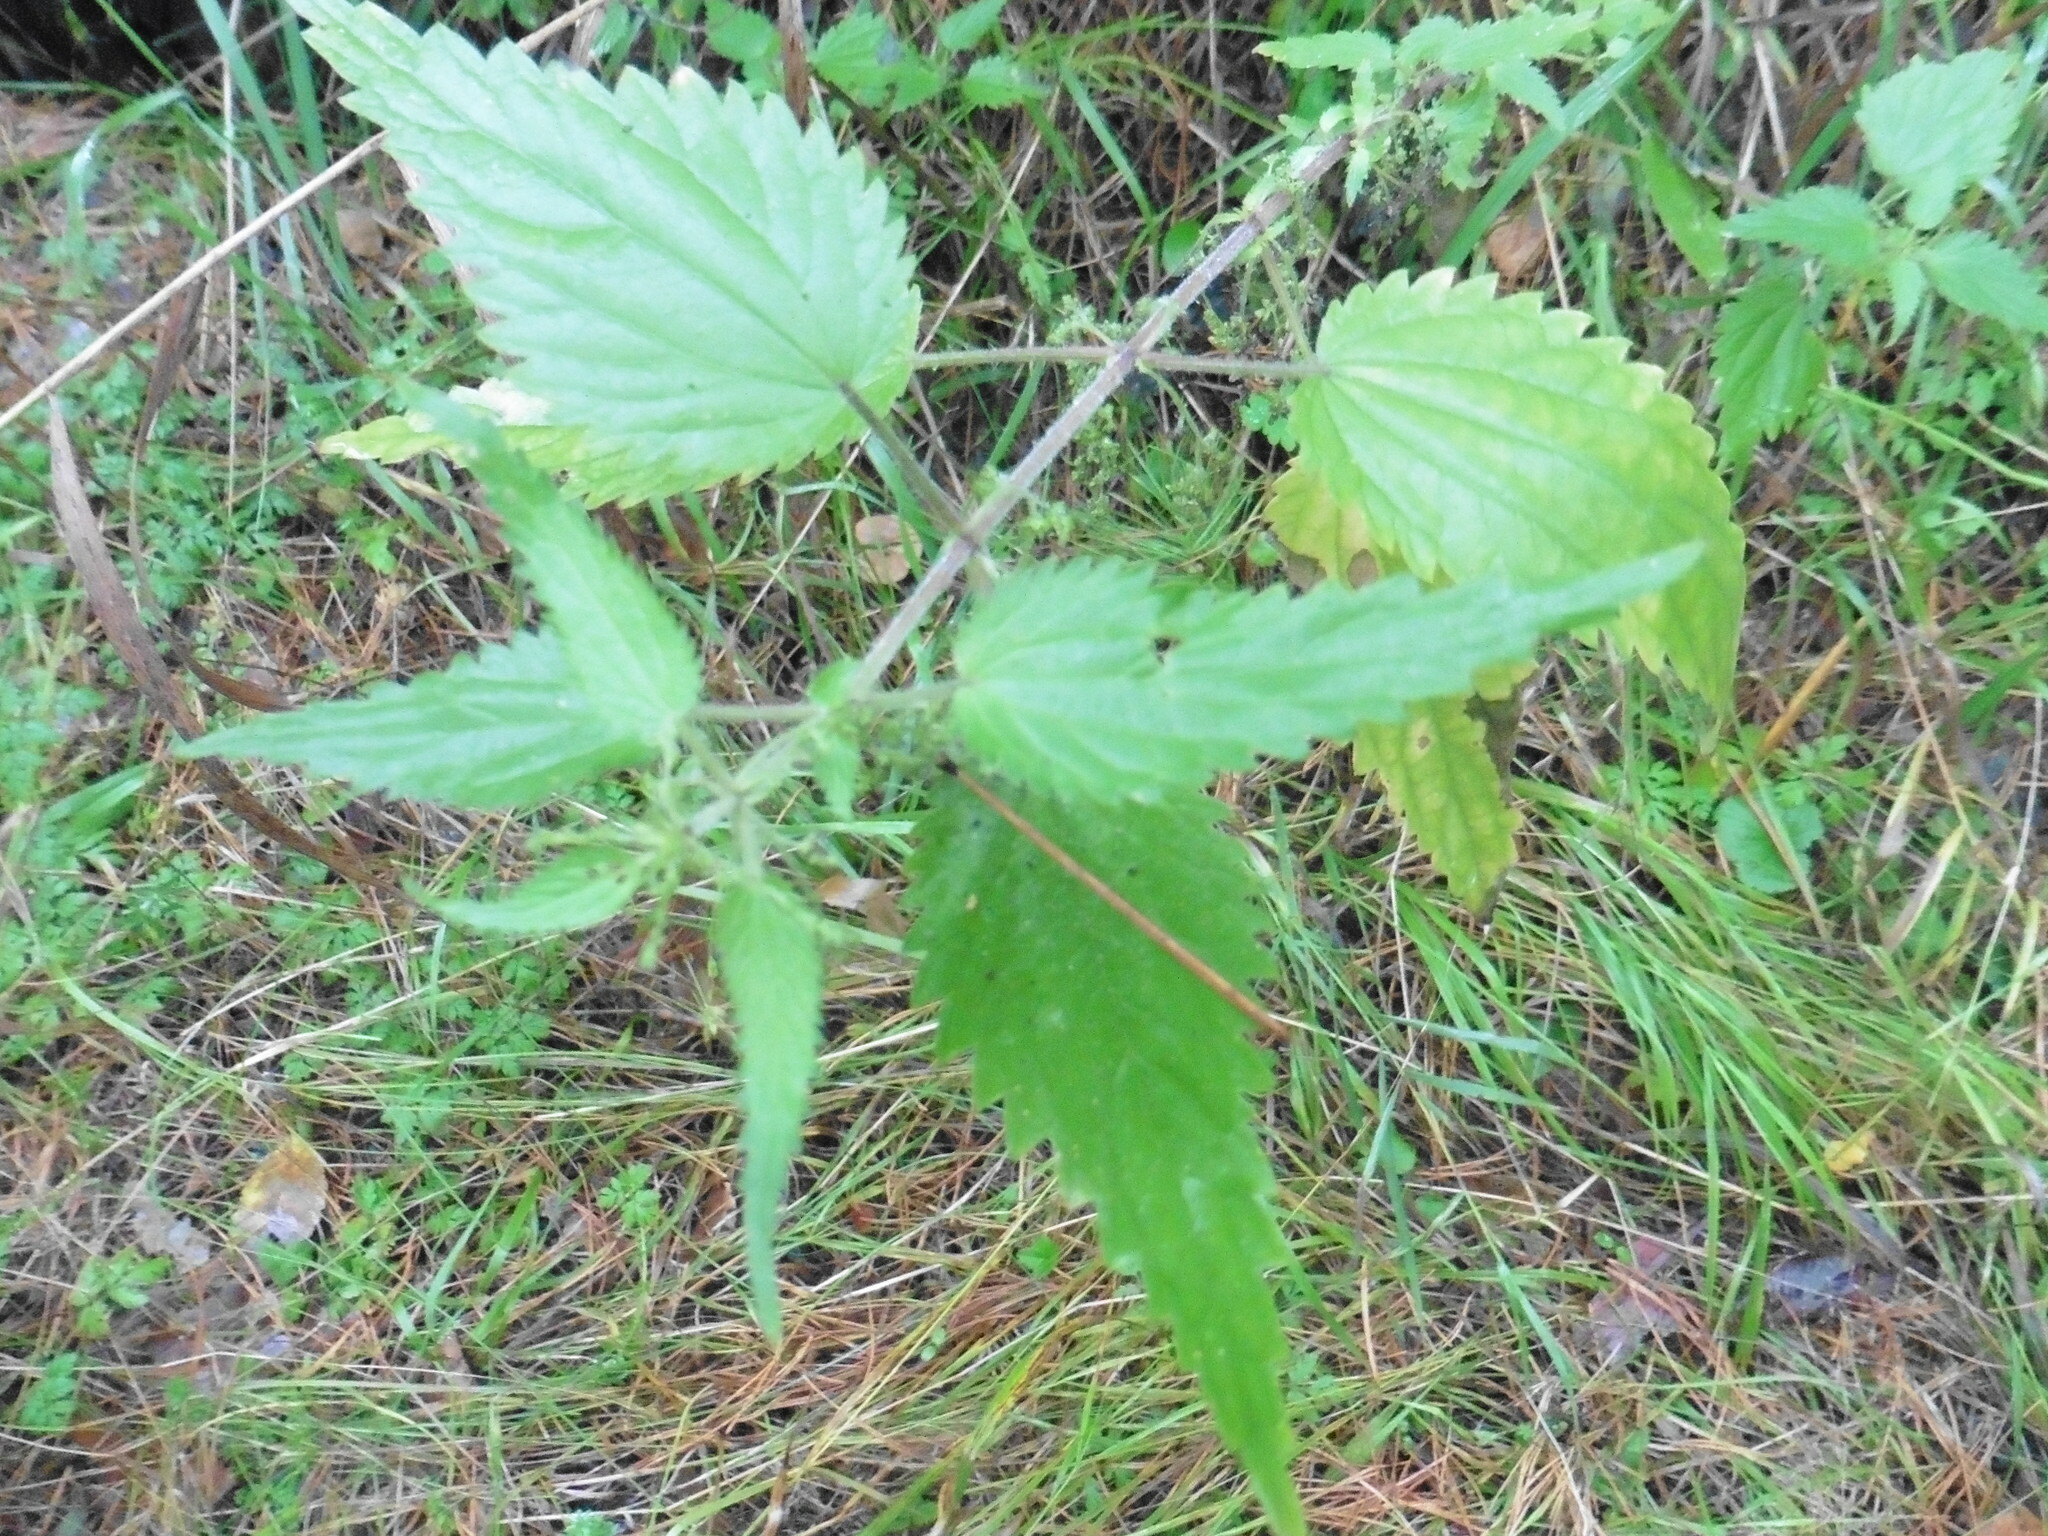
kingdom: Plantae
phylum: Tracheophyta
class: Magnoliopsida
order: Rosales
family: Urticaceae
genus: Urtica
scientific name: Urtica dioica
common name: Common nettle
